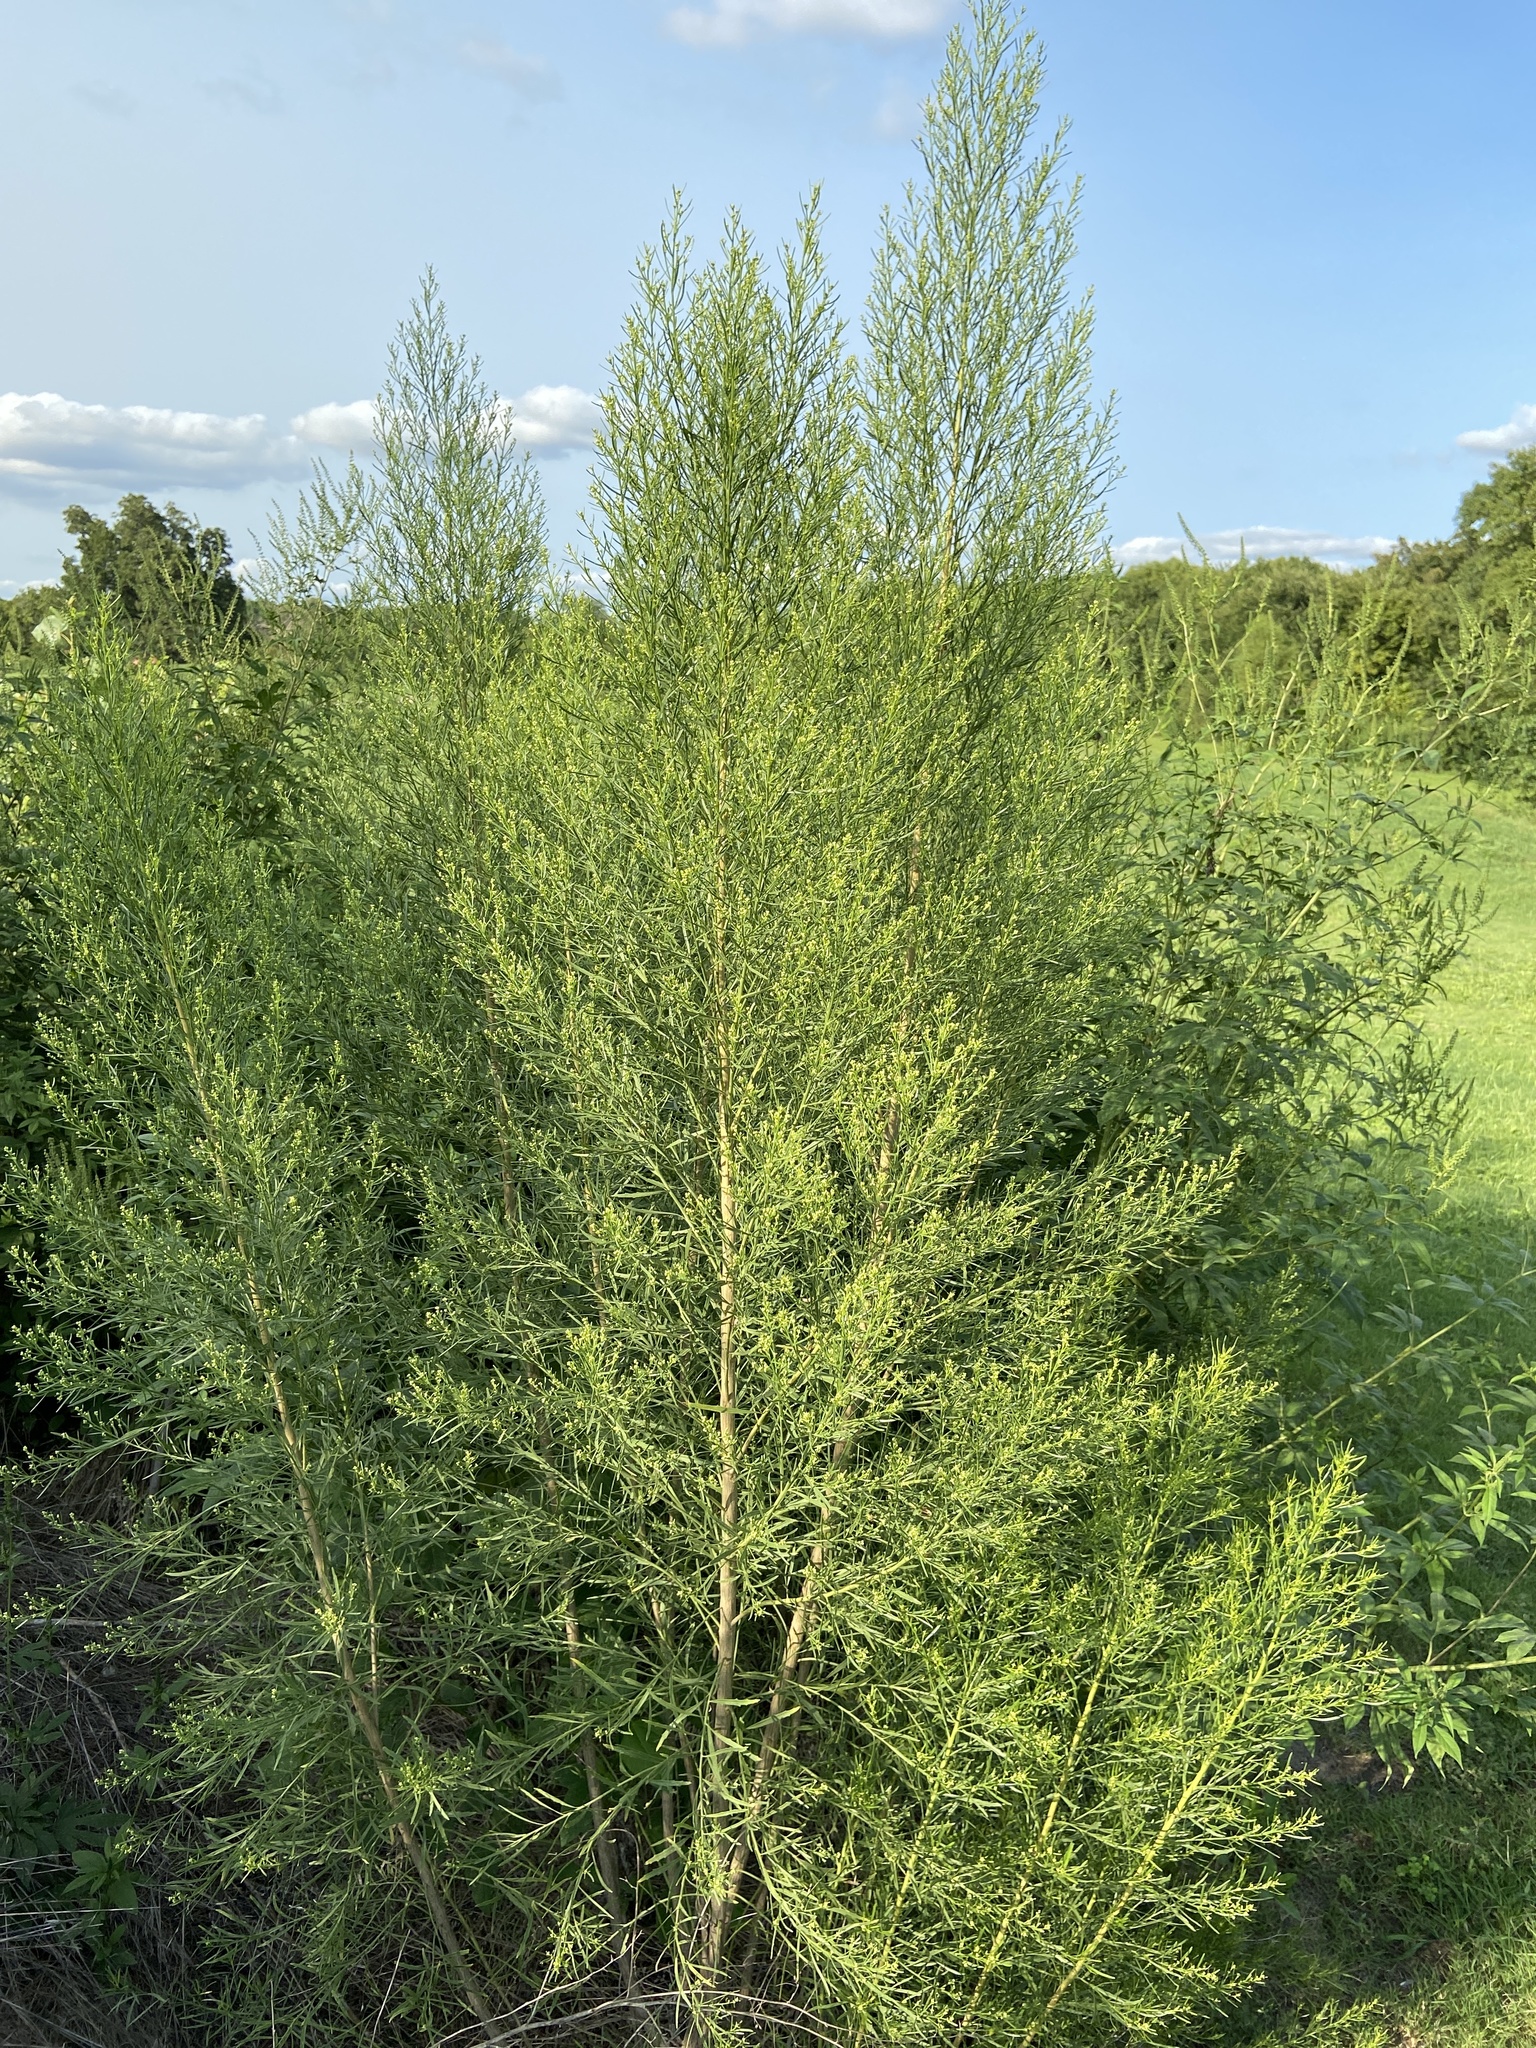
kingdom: Plantae
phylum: Tracheophyta
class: Magnoliopsida
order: Asterales
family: Asteraceae
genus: Baccharis
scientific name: Baccharis neglecta
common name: Roosevelt-weed
